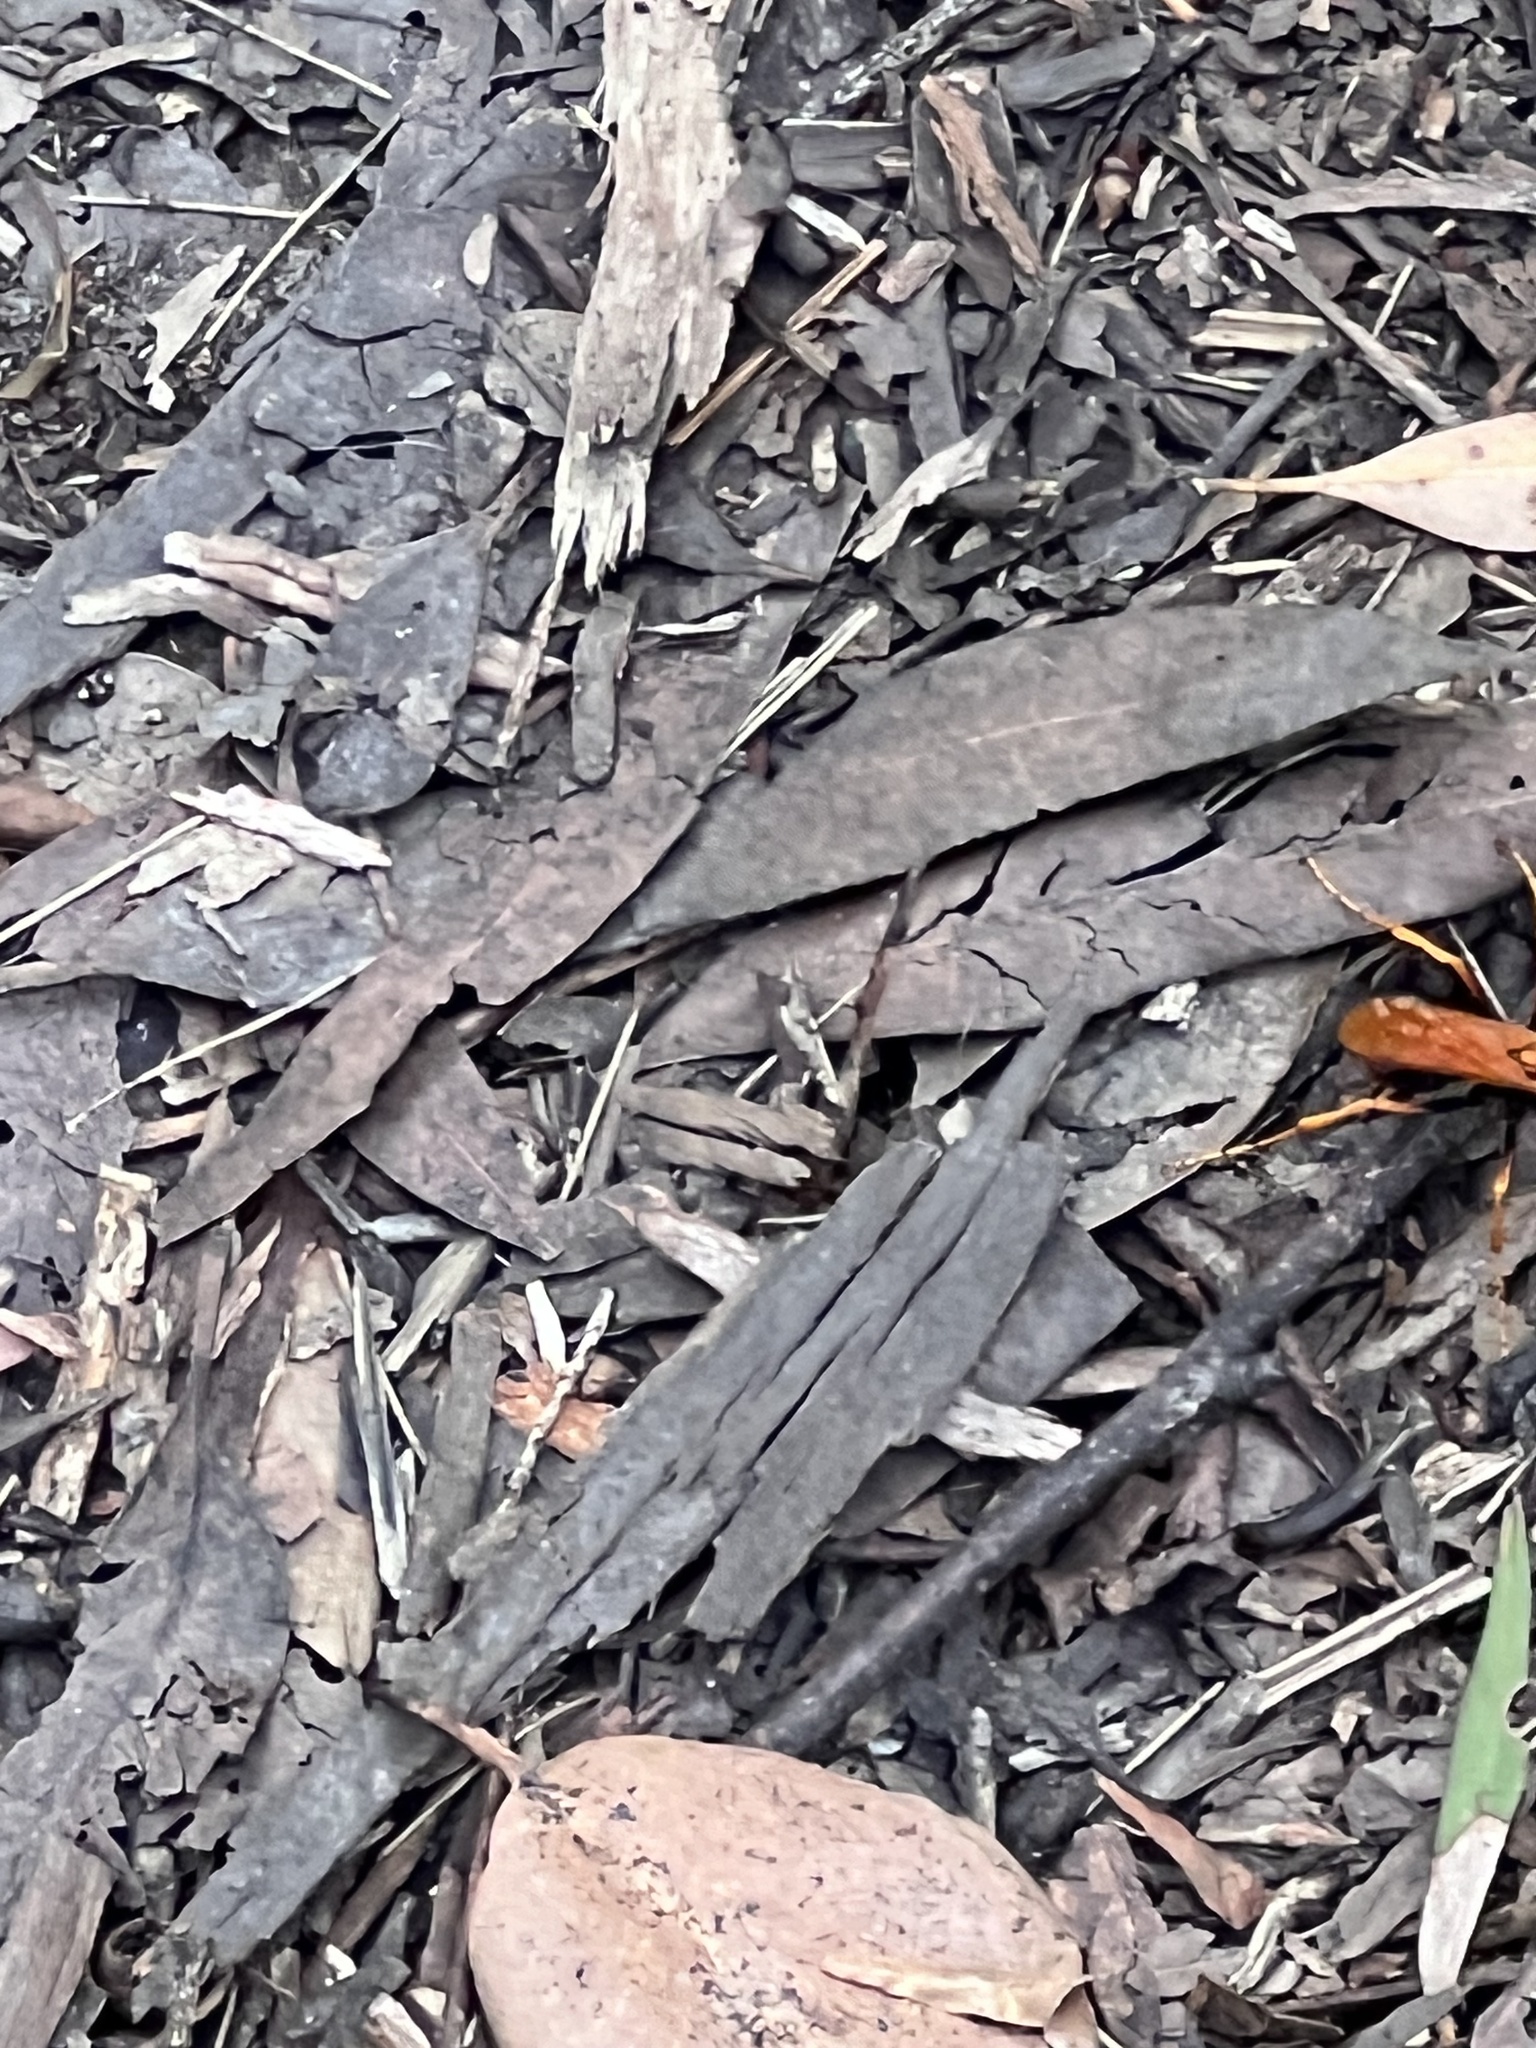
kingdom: Animalia
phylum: Arthropoda
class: Insecta
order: Hymenoptera
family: Pompilidae
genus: Cryptocheilus
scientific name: Cryptocheilus octomaculatus
